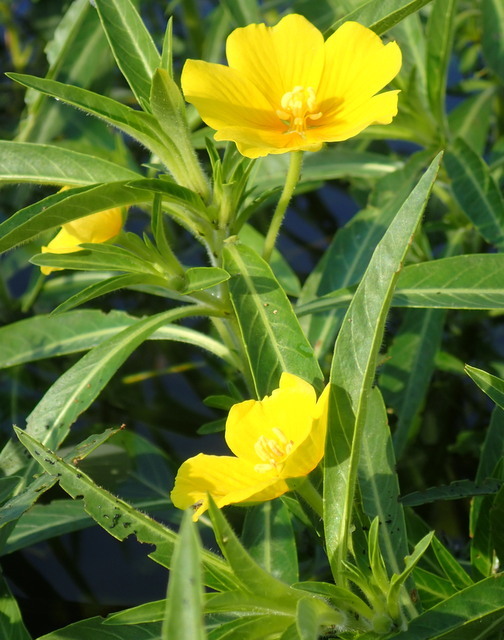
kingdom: Plantae
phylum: Tracheophyta
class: Magnoliopsida
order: Myrtales
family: Onagraceae
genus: Ludwigia
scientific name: Ludwigia peploides
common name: Floating primrose-willow
